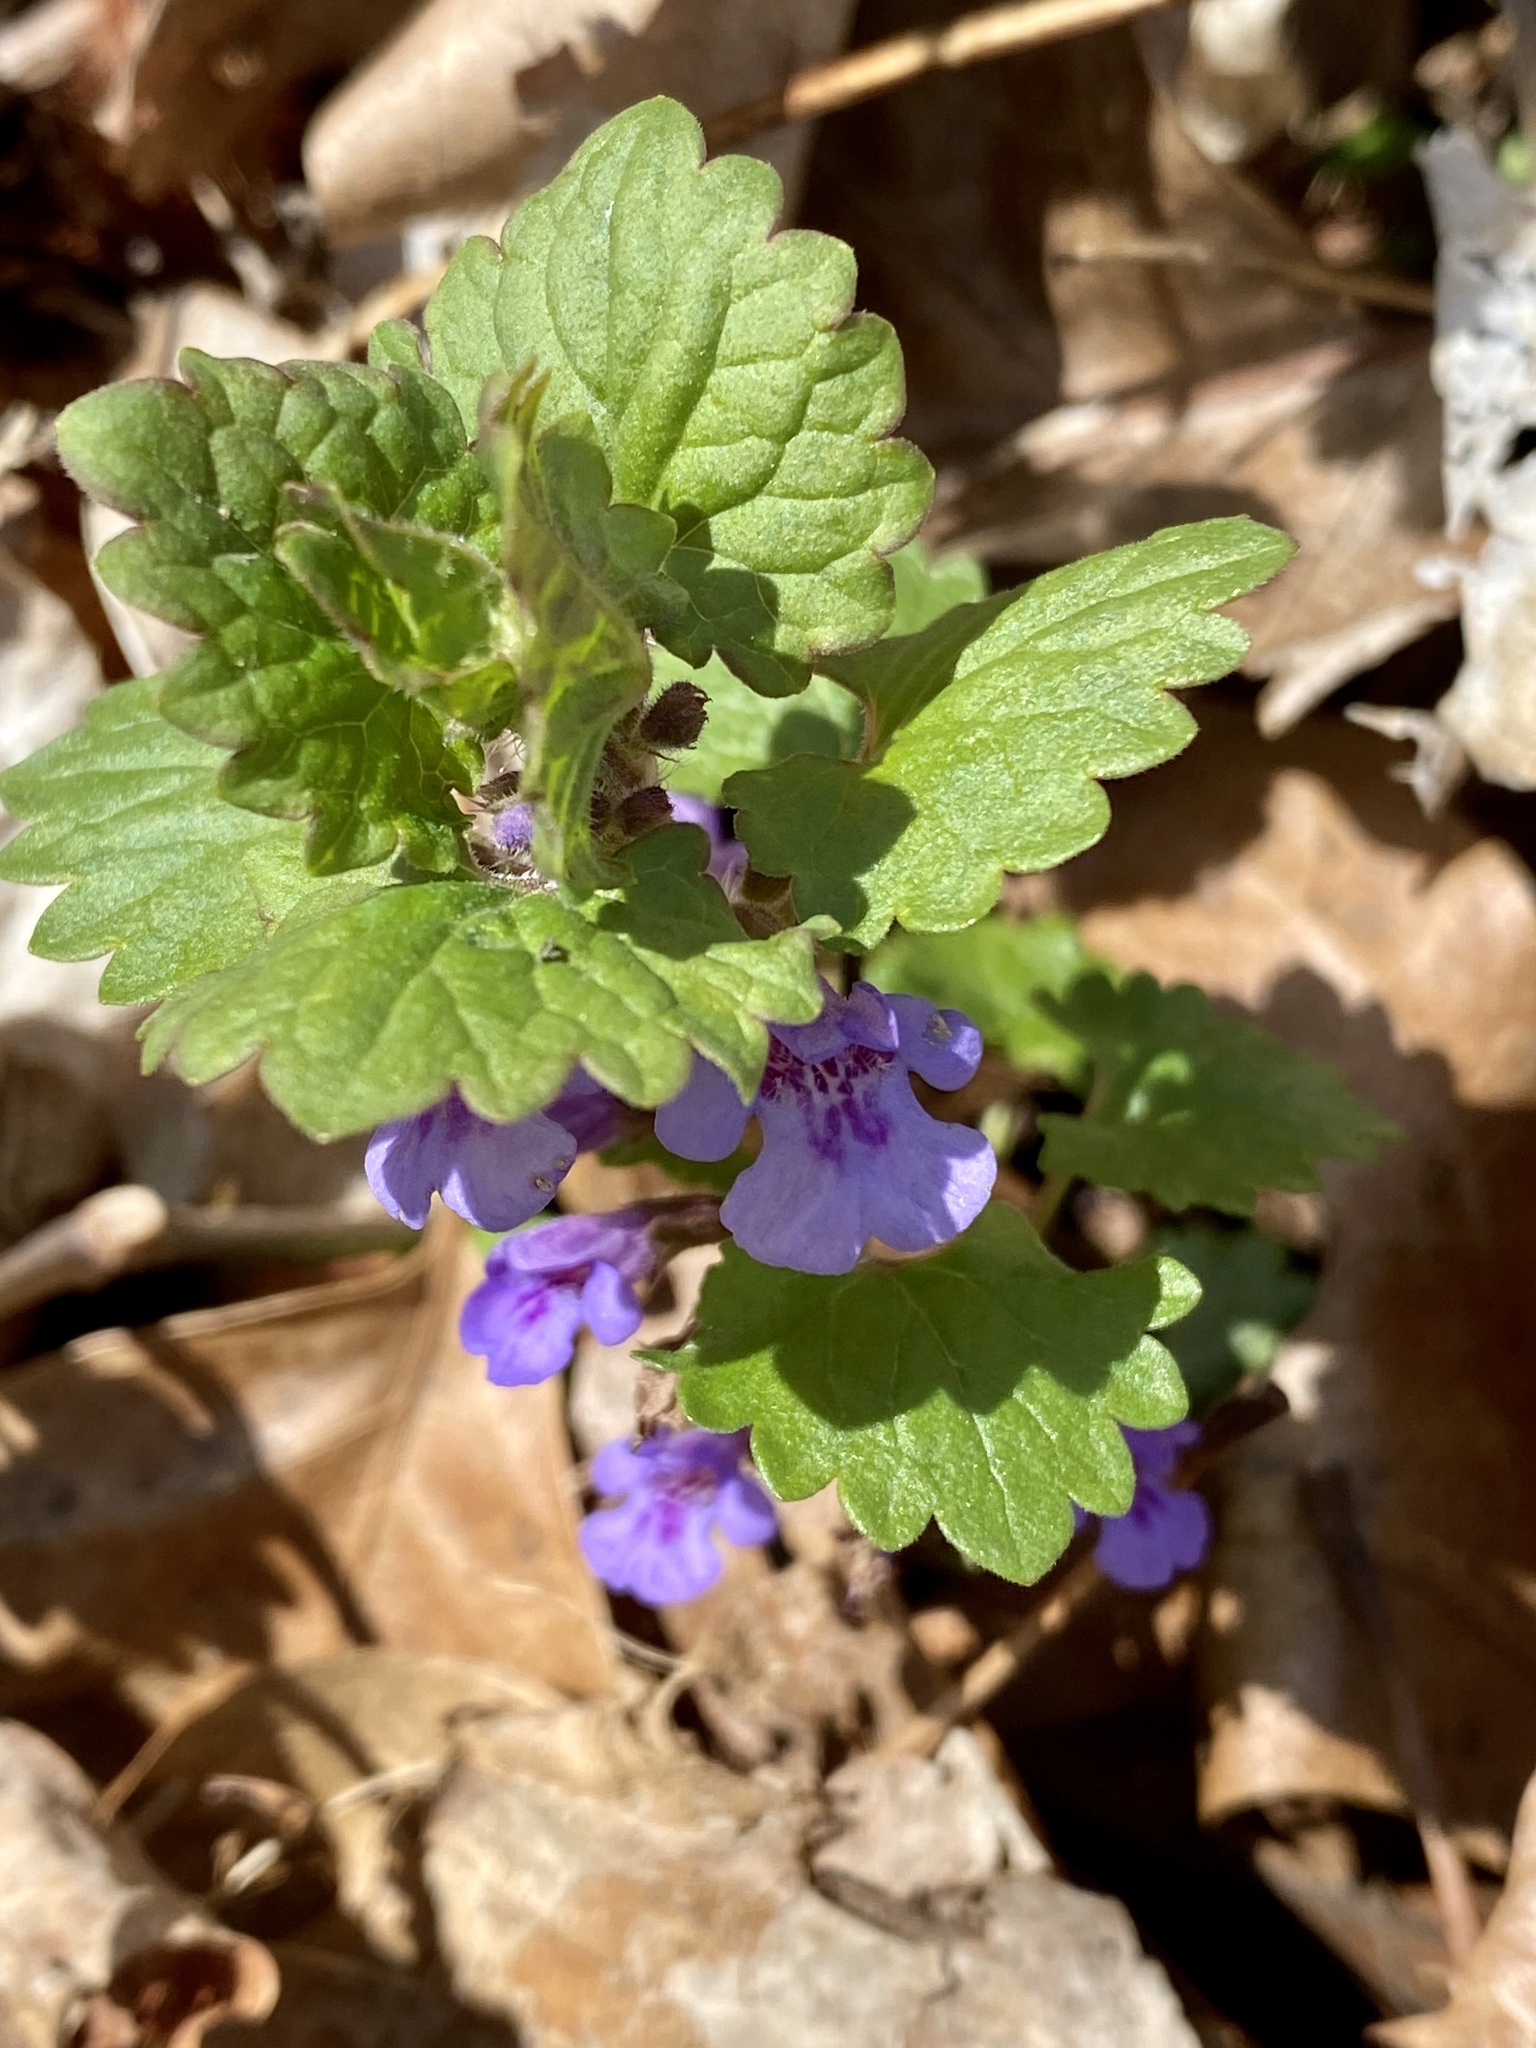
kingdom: Plantae
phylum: Tracheophyta
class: Magnoliopsida
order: Lamiales
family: Lamiaceae
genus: Glechoma
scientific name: Glechoma hederacea
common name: Ground ivy
